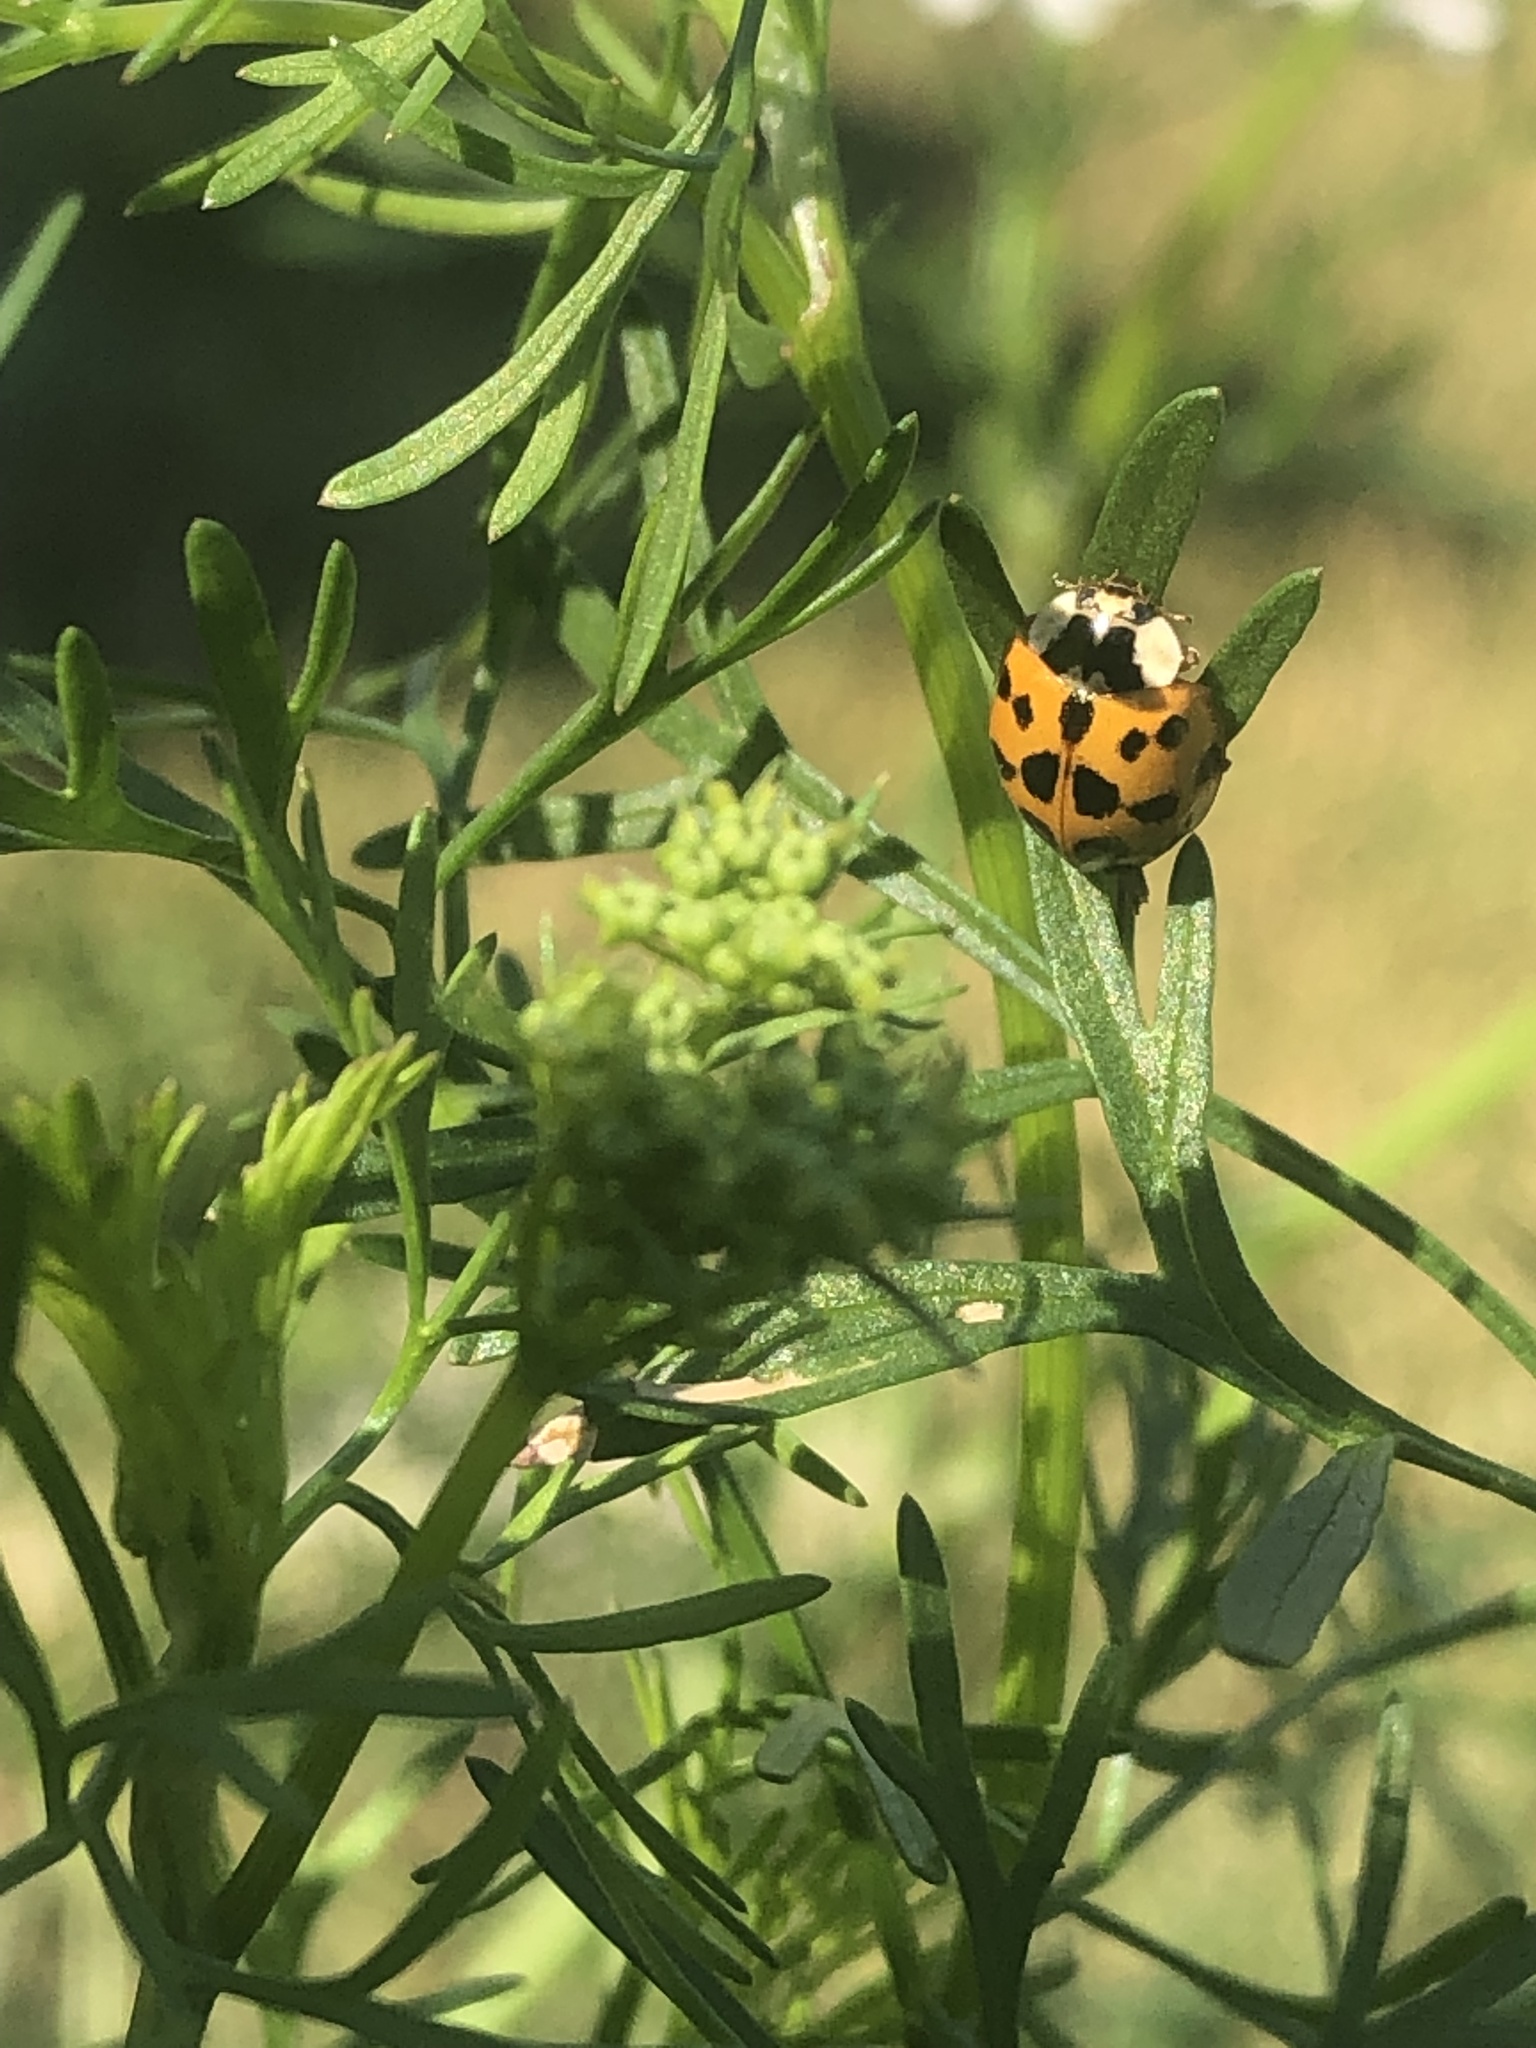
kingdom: Animalia
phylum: Arthropoda
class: Insecta
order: Coleoptera
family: Coccinellidae
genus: Harmonia
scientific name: Harmonia axyridis
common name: Harlequin ladybird
